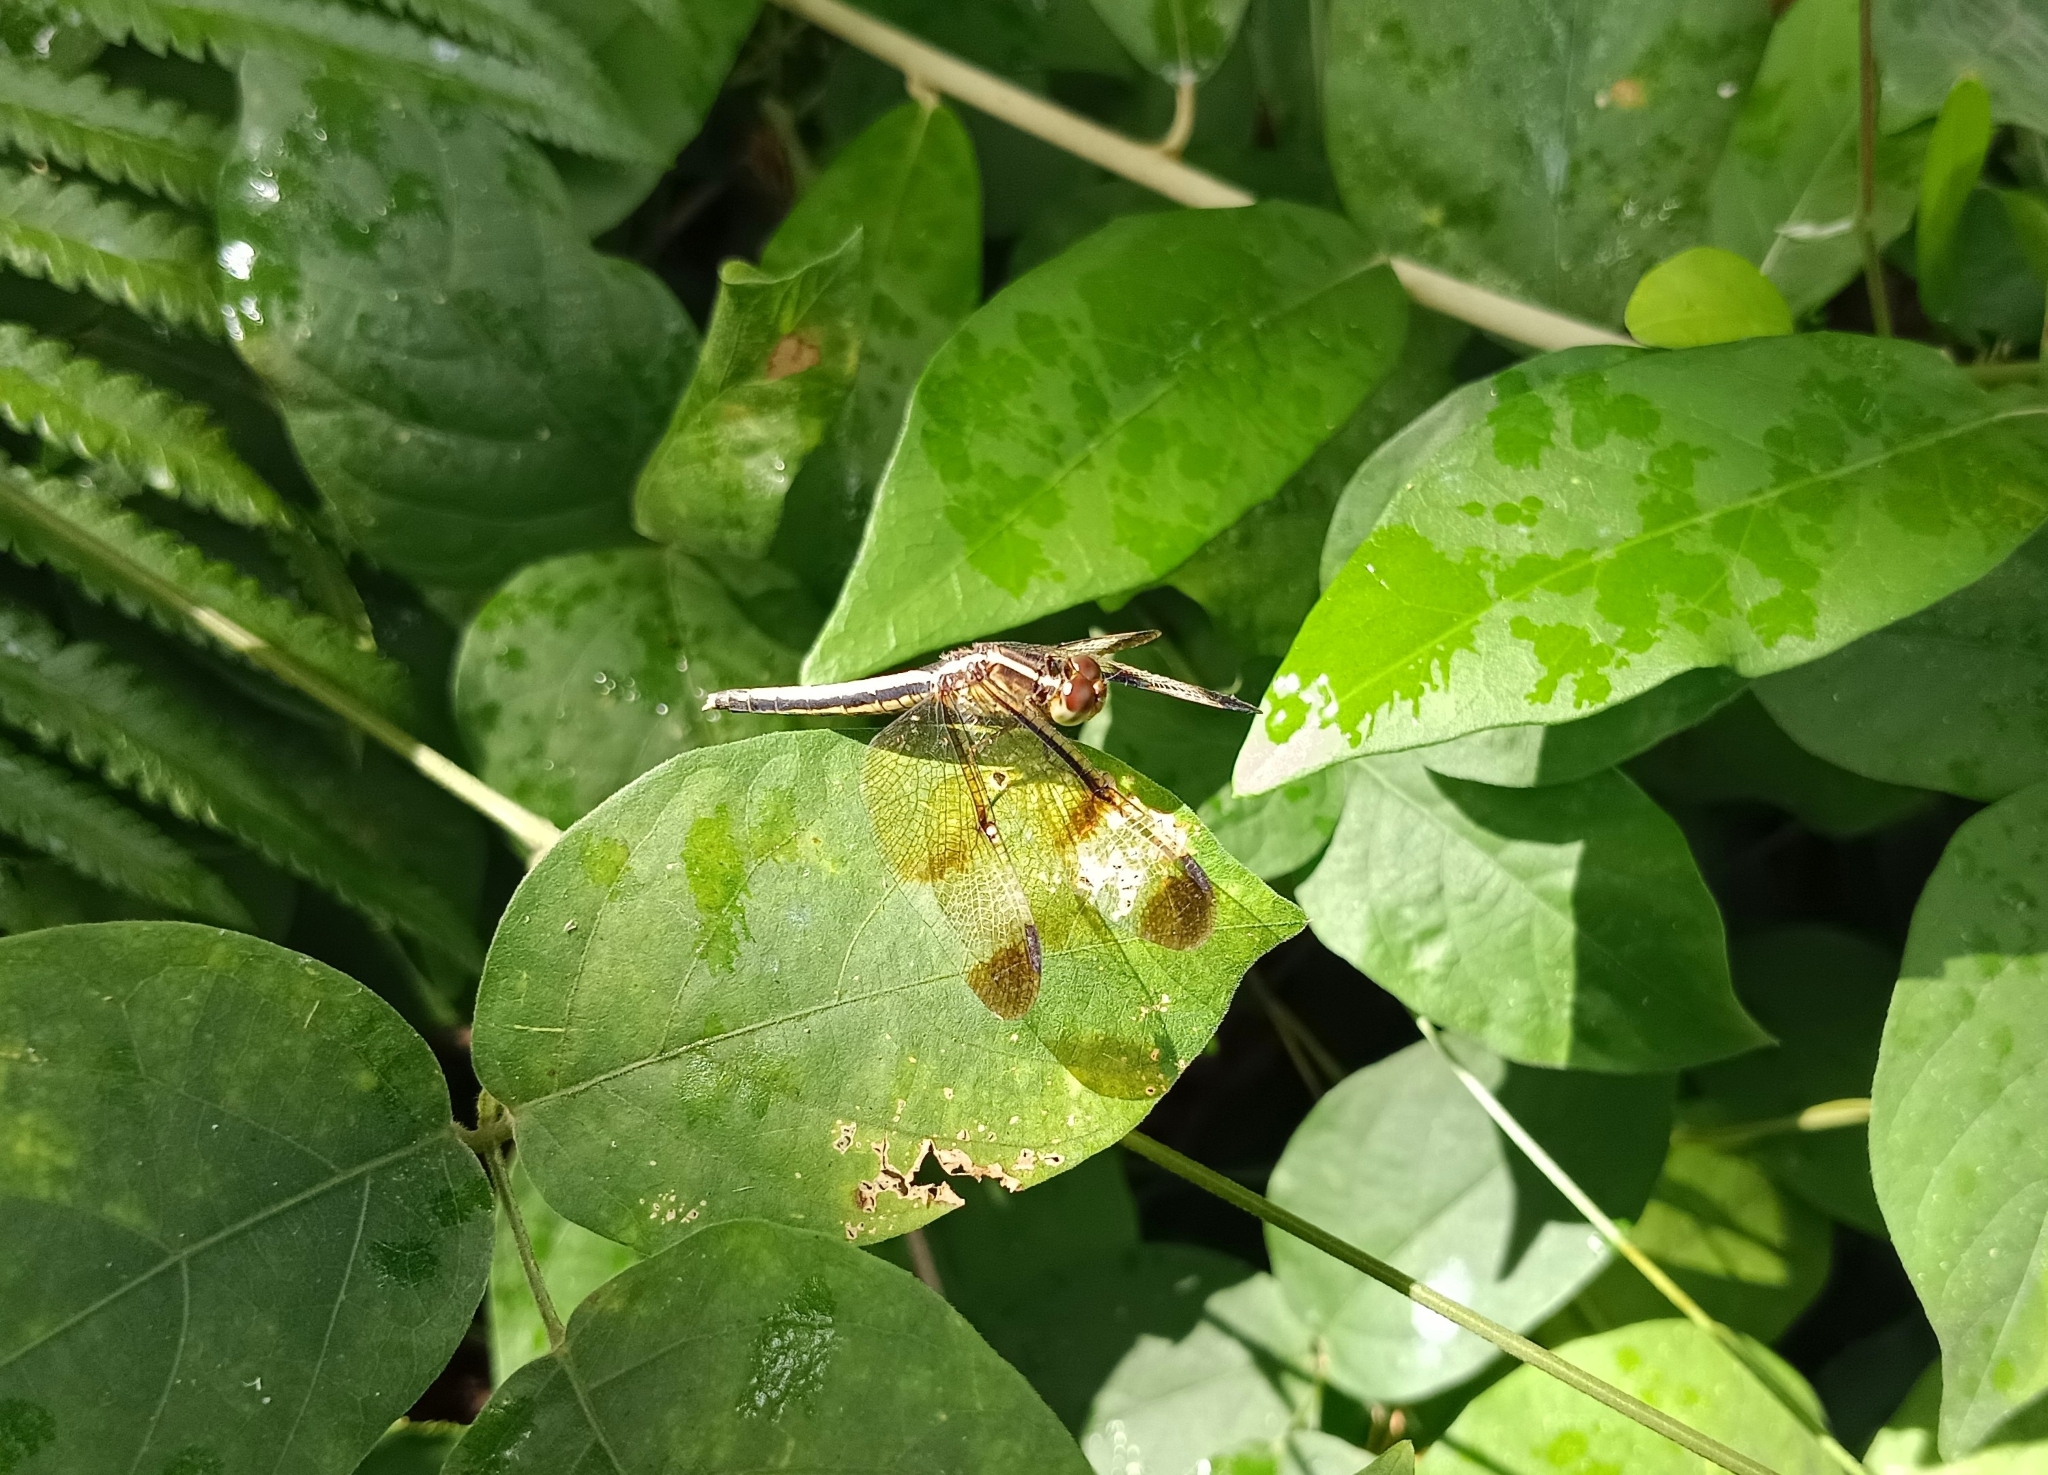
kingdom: Animalia
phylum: Arthropoda
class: Insecta
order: Odonata
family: Libellulidae
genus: Neurothemis
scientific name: Neurothemis tullia
